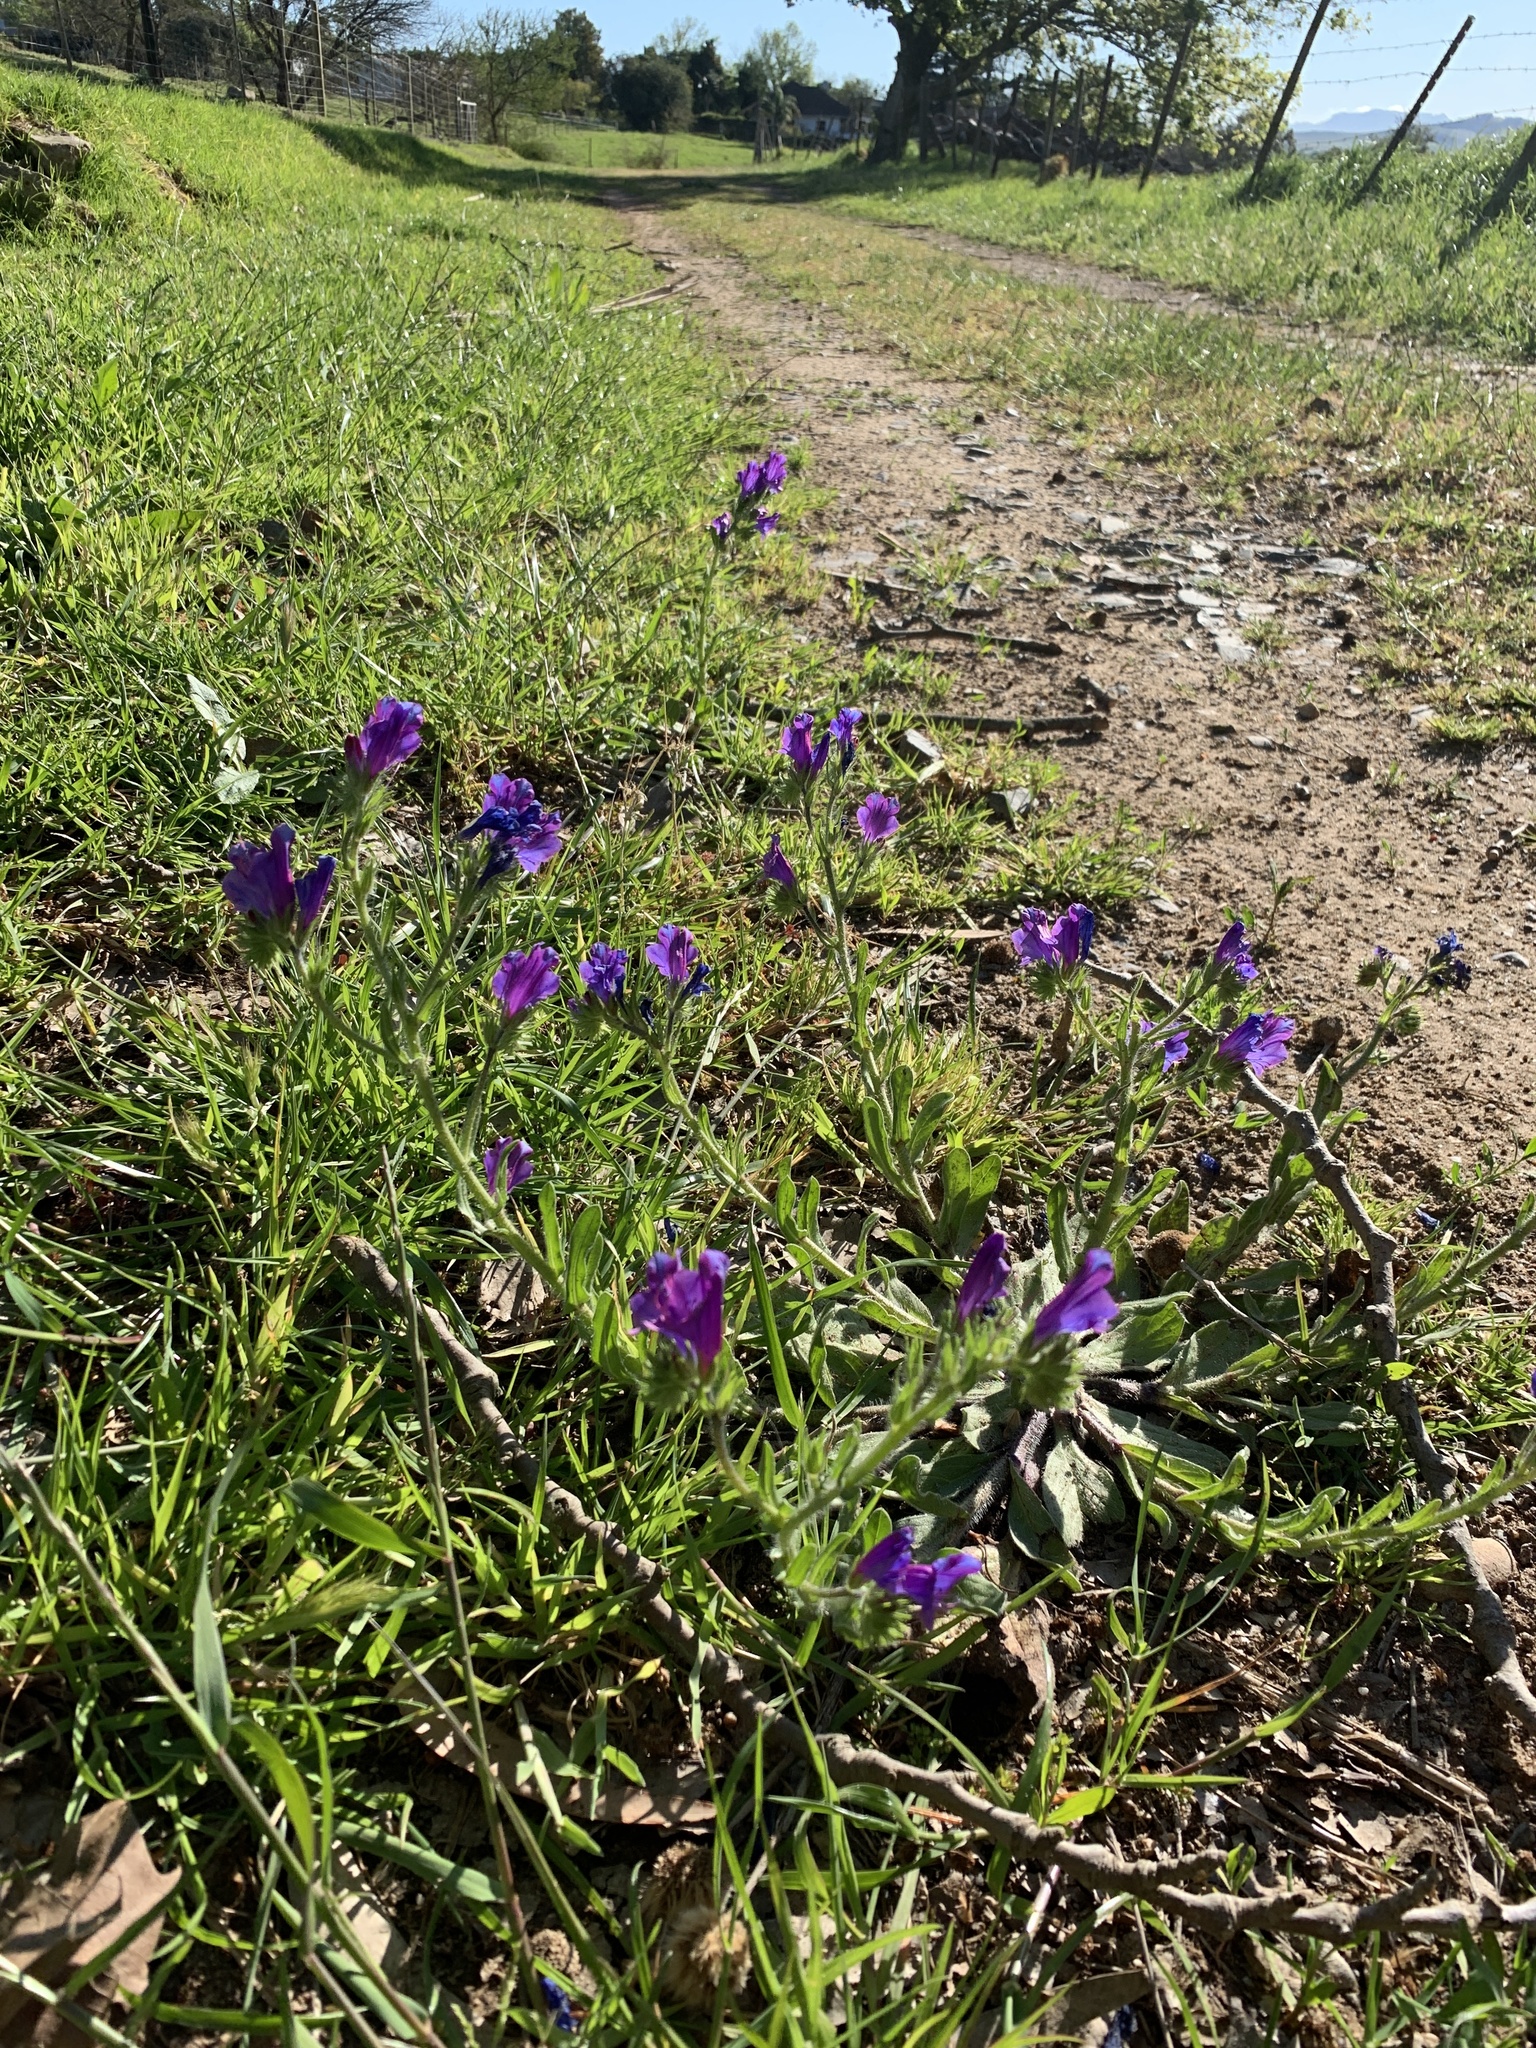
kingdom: Plantae
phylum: Tracheophyta
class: Magnoliopsida
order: Boraginales
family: Boraginaceae
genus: Echium
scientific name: Echium plantagineum
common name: Purple viper's-bugloss
